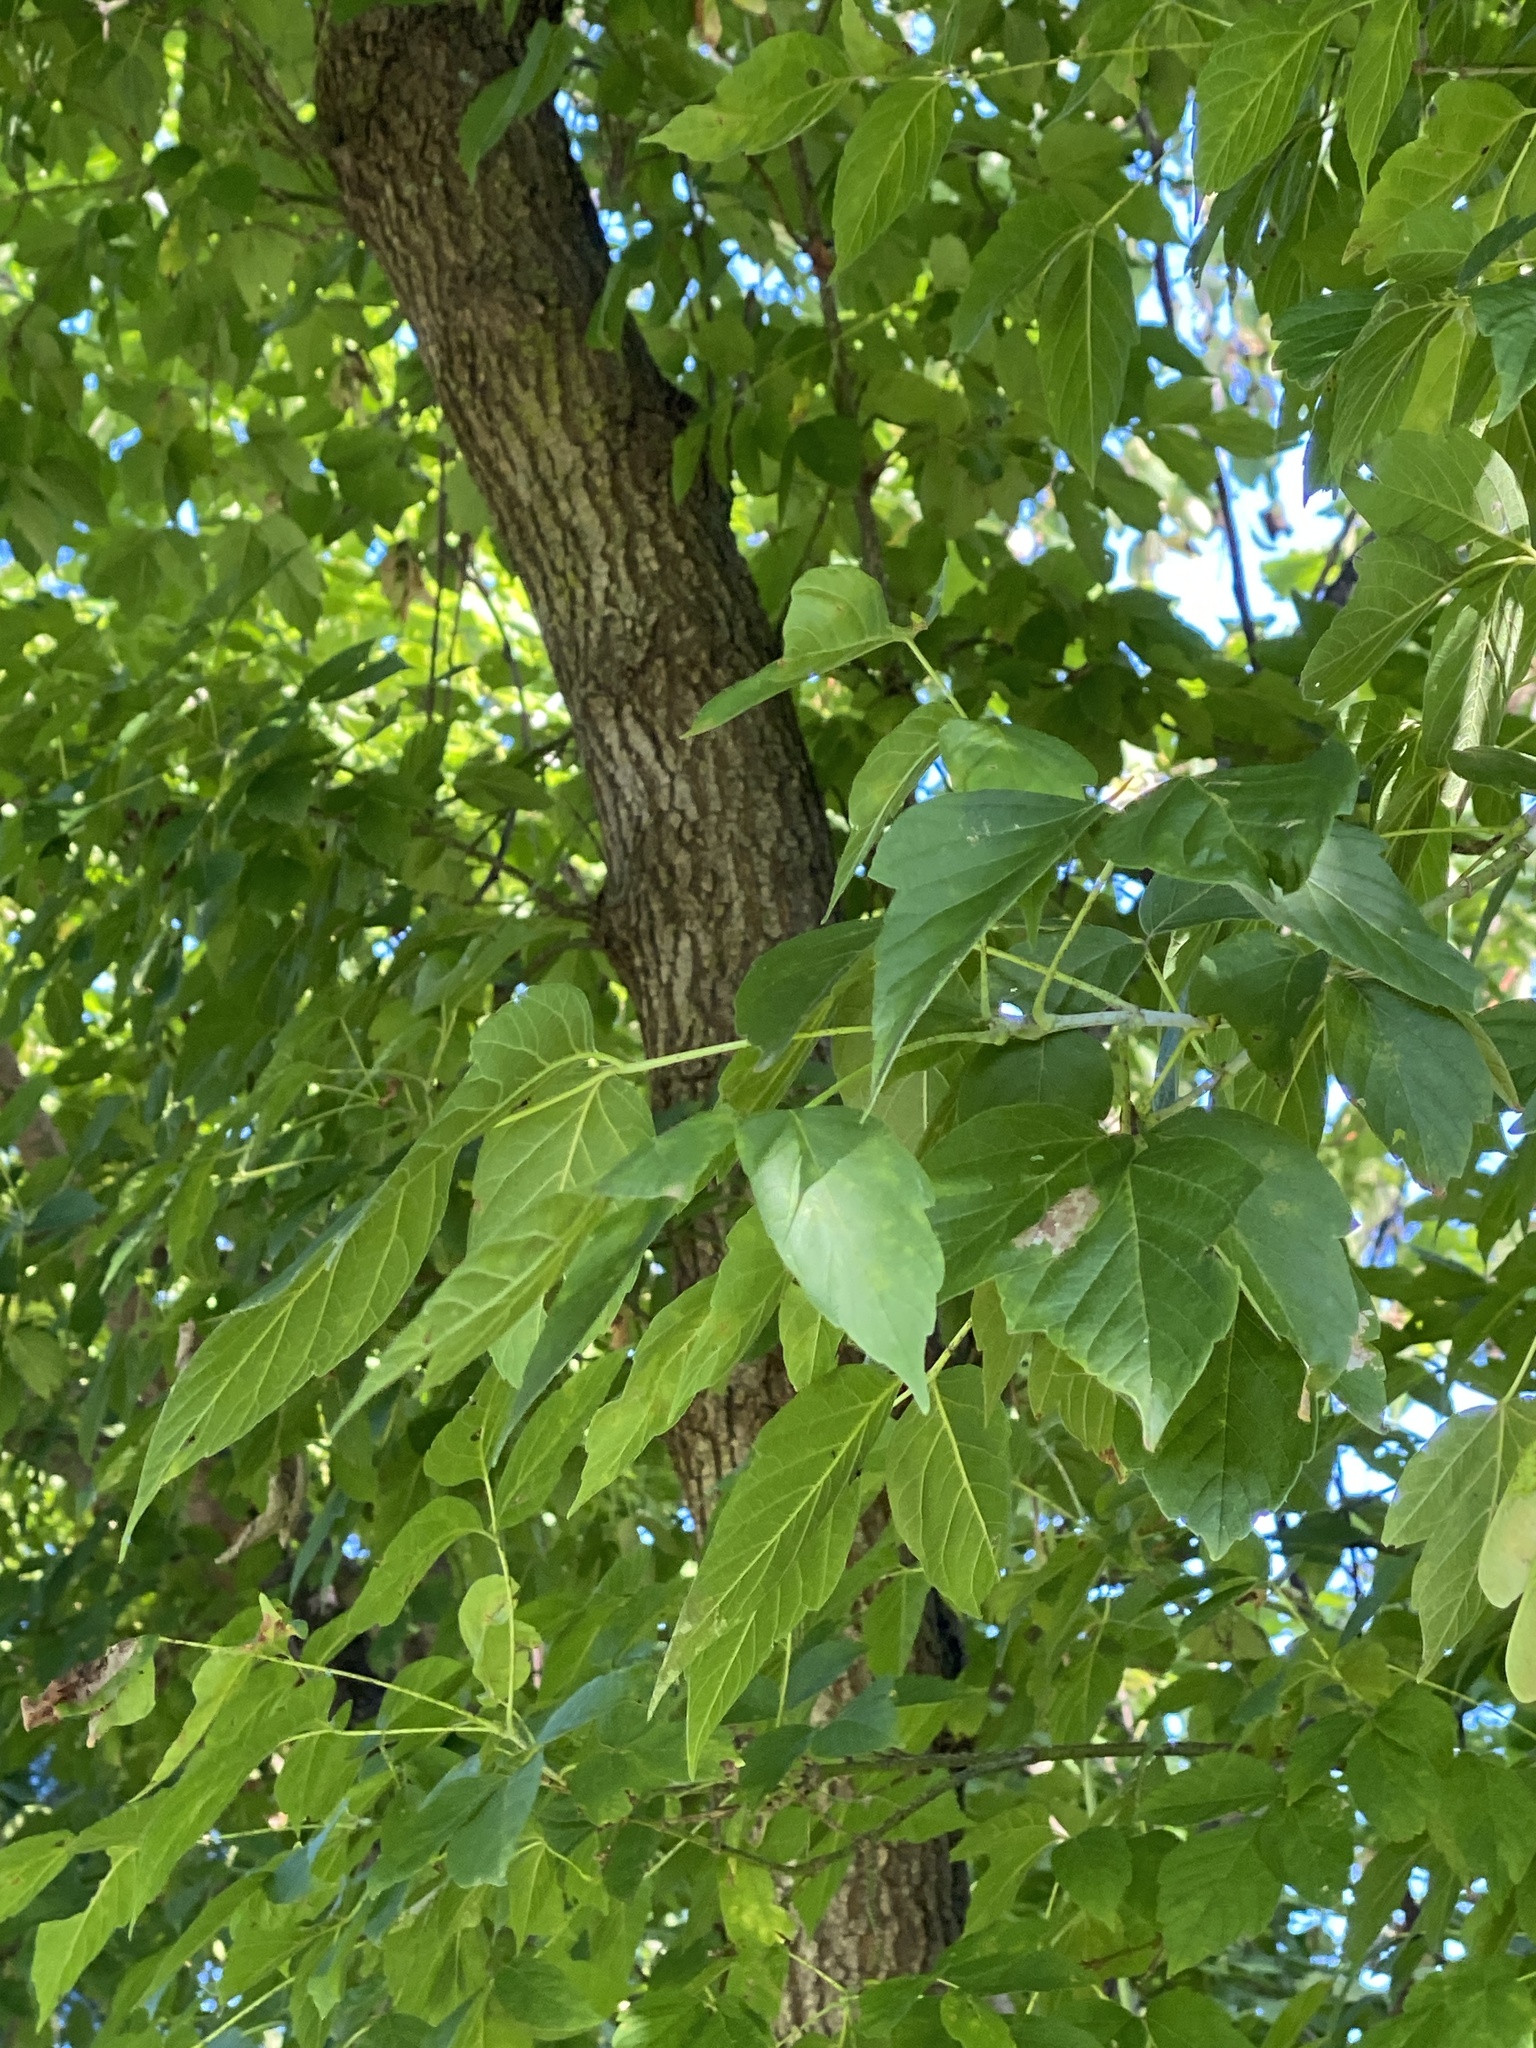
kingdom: Plantae
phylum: Tracheophyta
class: Magnoliopsida
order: Sapindales
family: Sapindaceae
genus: Acer
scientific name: Acer negundo
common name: Ashleaf maple
